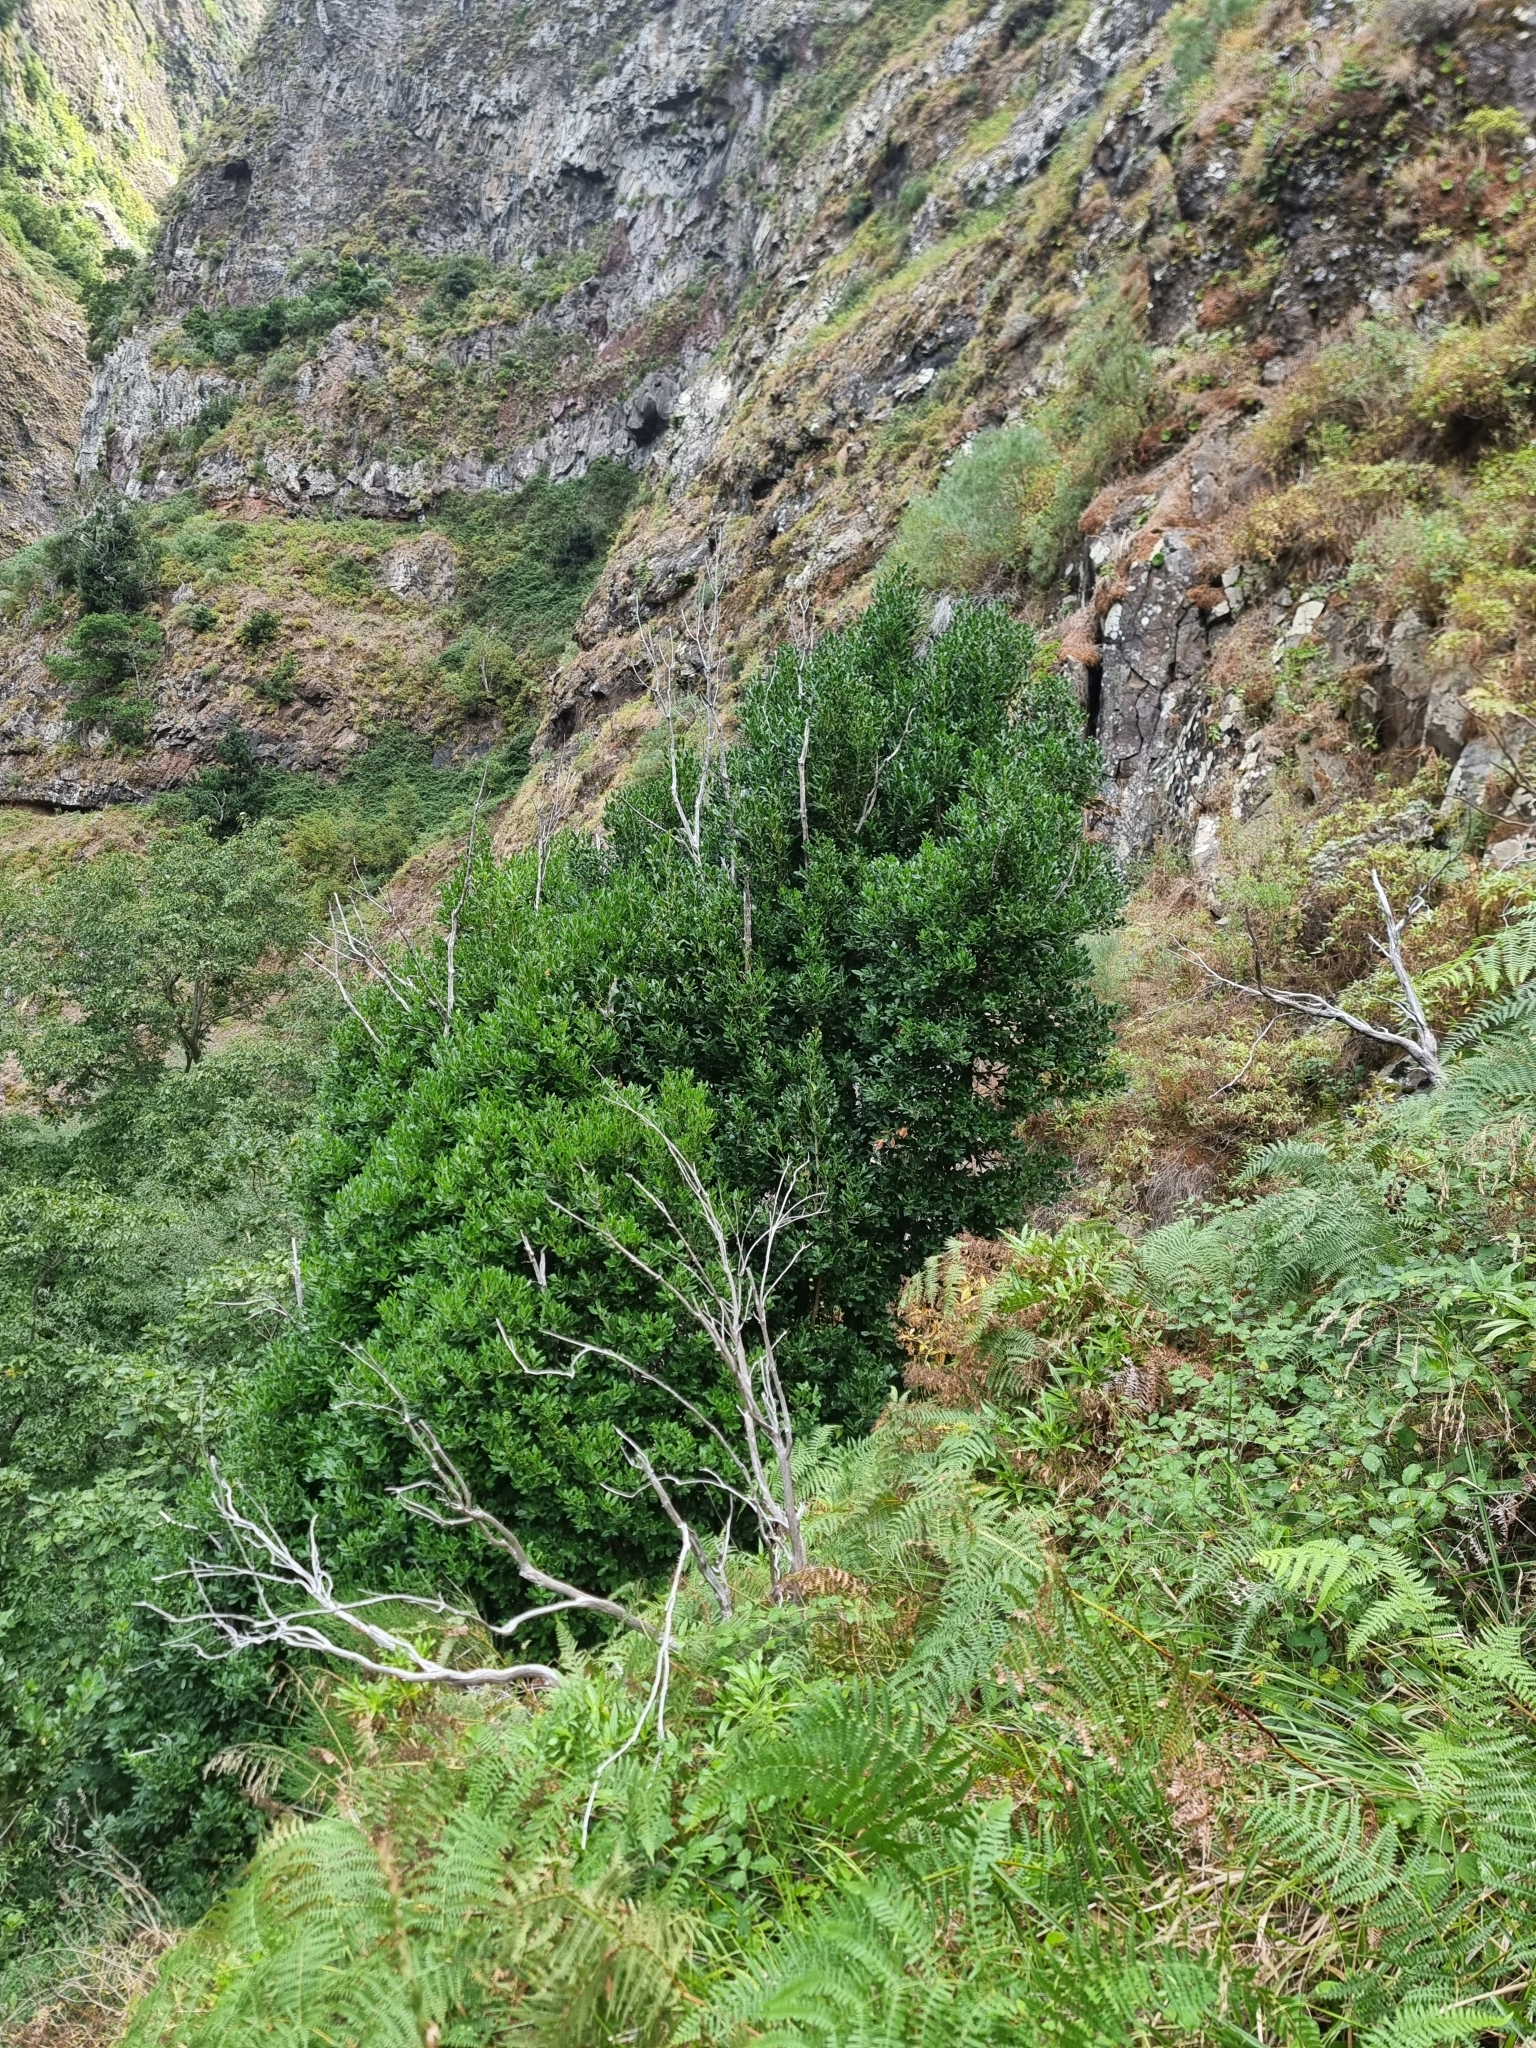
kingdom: Plantae
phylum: Tracheophyta
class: Magnoliopsida
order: Lamiales
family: Oleaceae
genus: Picconia
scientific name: Picconia excelsa
